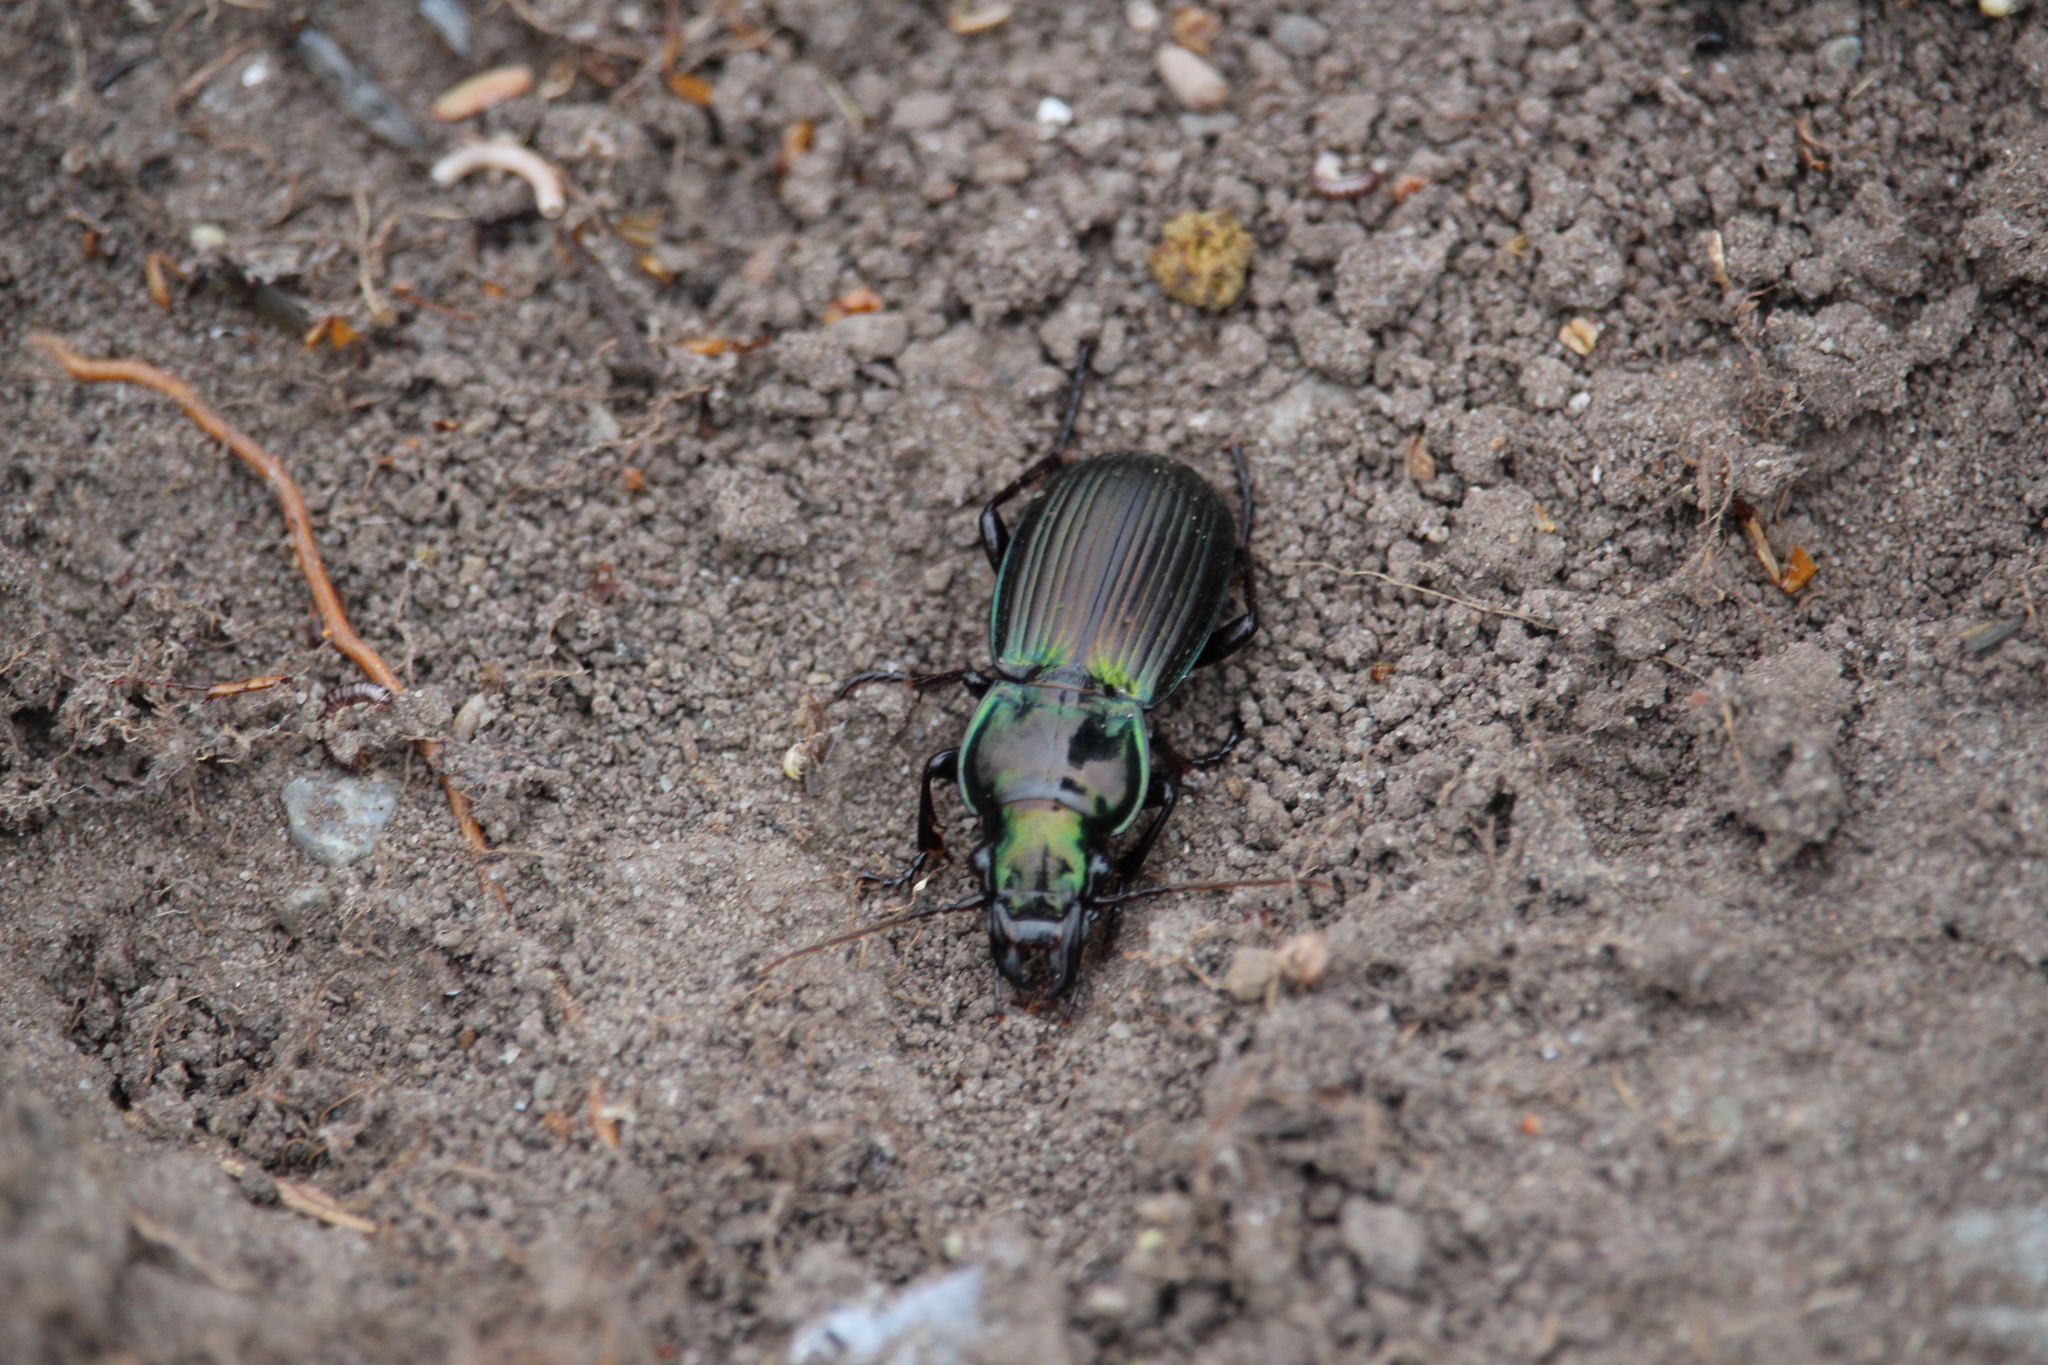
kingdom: Animalia
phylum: Arthropoda
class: Insecta
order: Coleoptera
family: Carabidae
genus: Megadromus
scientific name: Megadromus antarcticus
